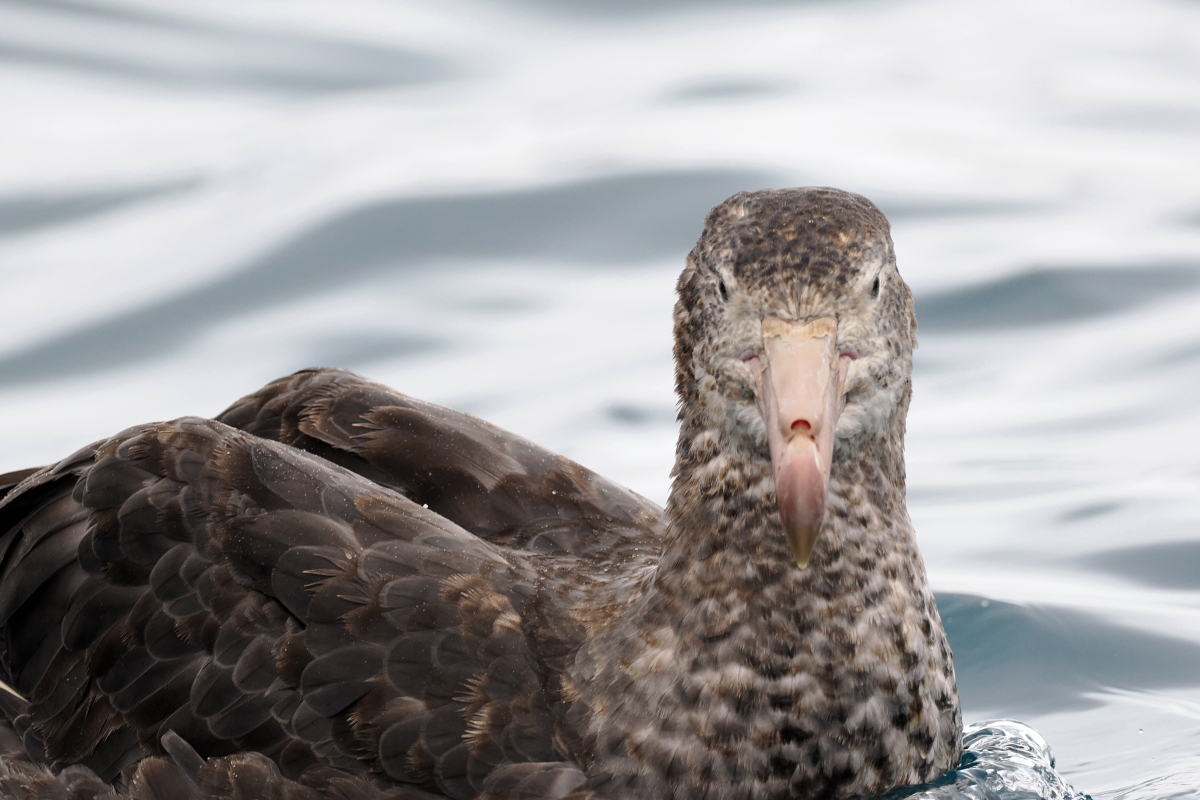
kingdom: Animalia
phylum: Chordata
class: Aves
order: Procellariiformes
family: Procellariidae
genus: Macronectes
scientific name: Macronectes halli
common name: Northern giant petrel
